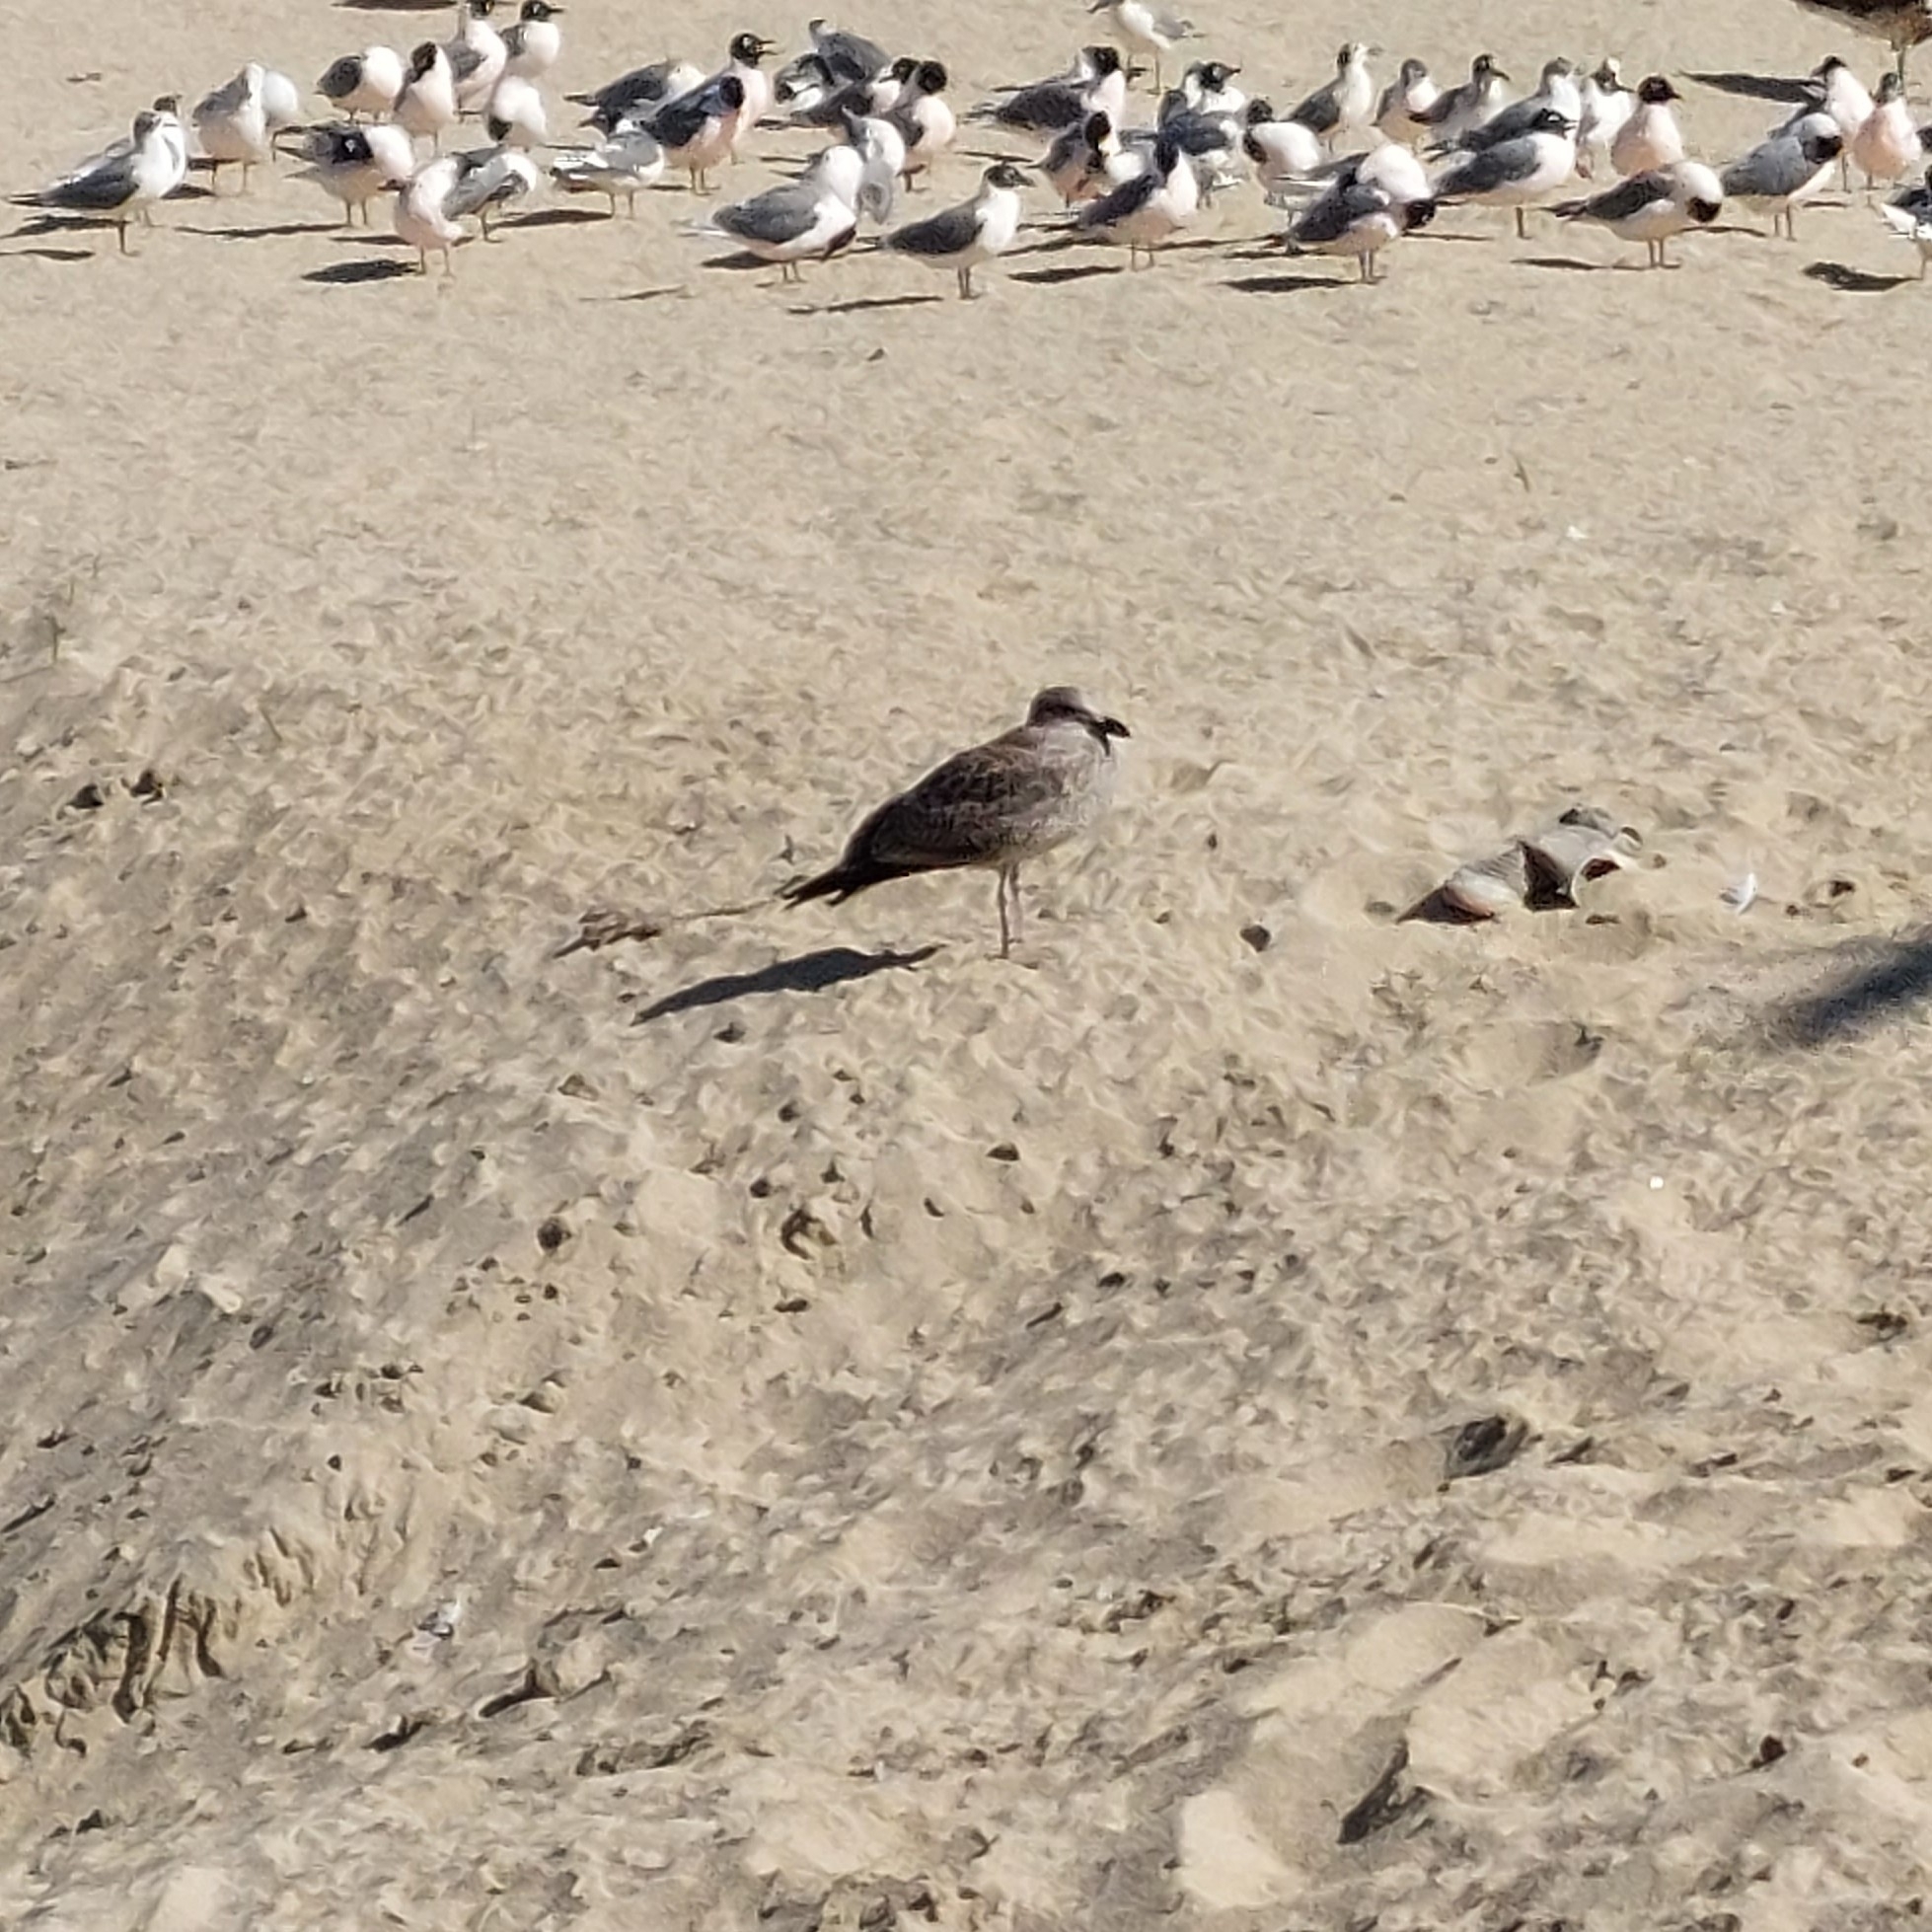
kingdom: Animalia
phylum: Chordata
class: Aves
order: Charadriiformes
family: Laridae
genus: Larus
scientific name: Larus dominicanus
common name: Kelp gull
